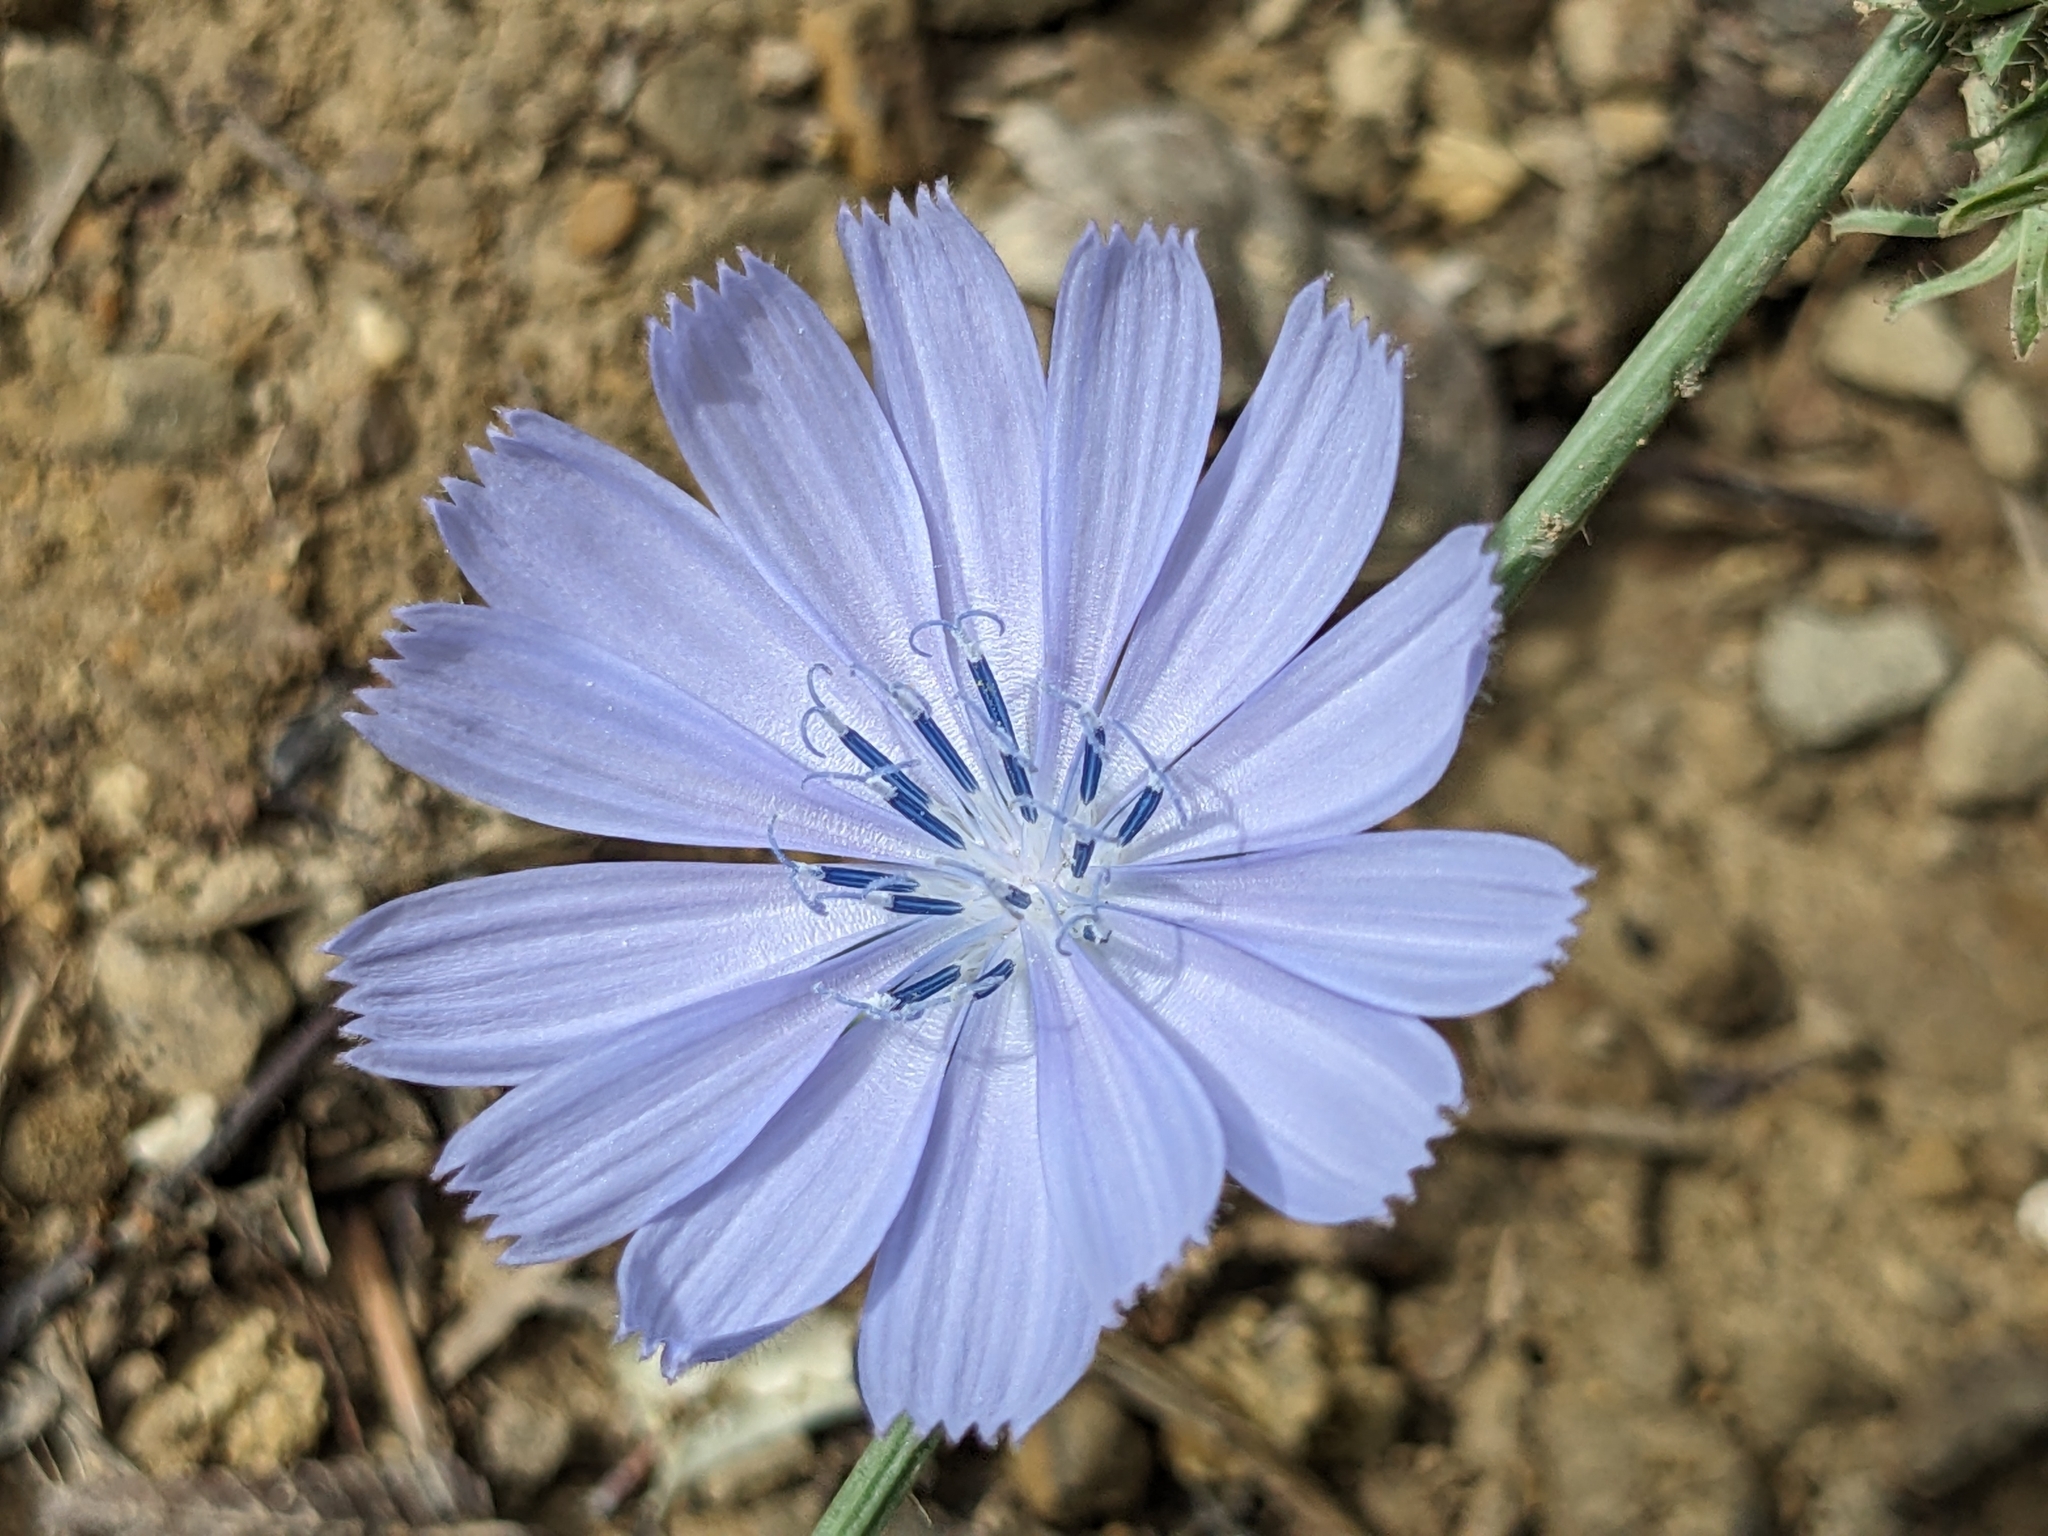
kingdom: Plantae
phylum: Tracheophyta
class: Magnoliopsida
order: Asterales
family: Asteraceae
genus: Cichorium
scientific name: Cichorium intybus
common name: Chicory
